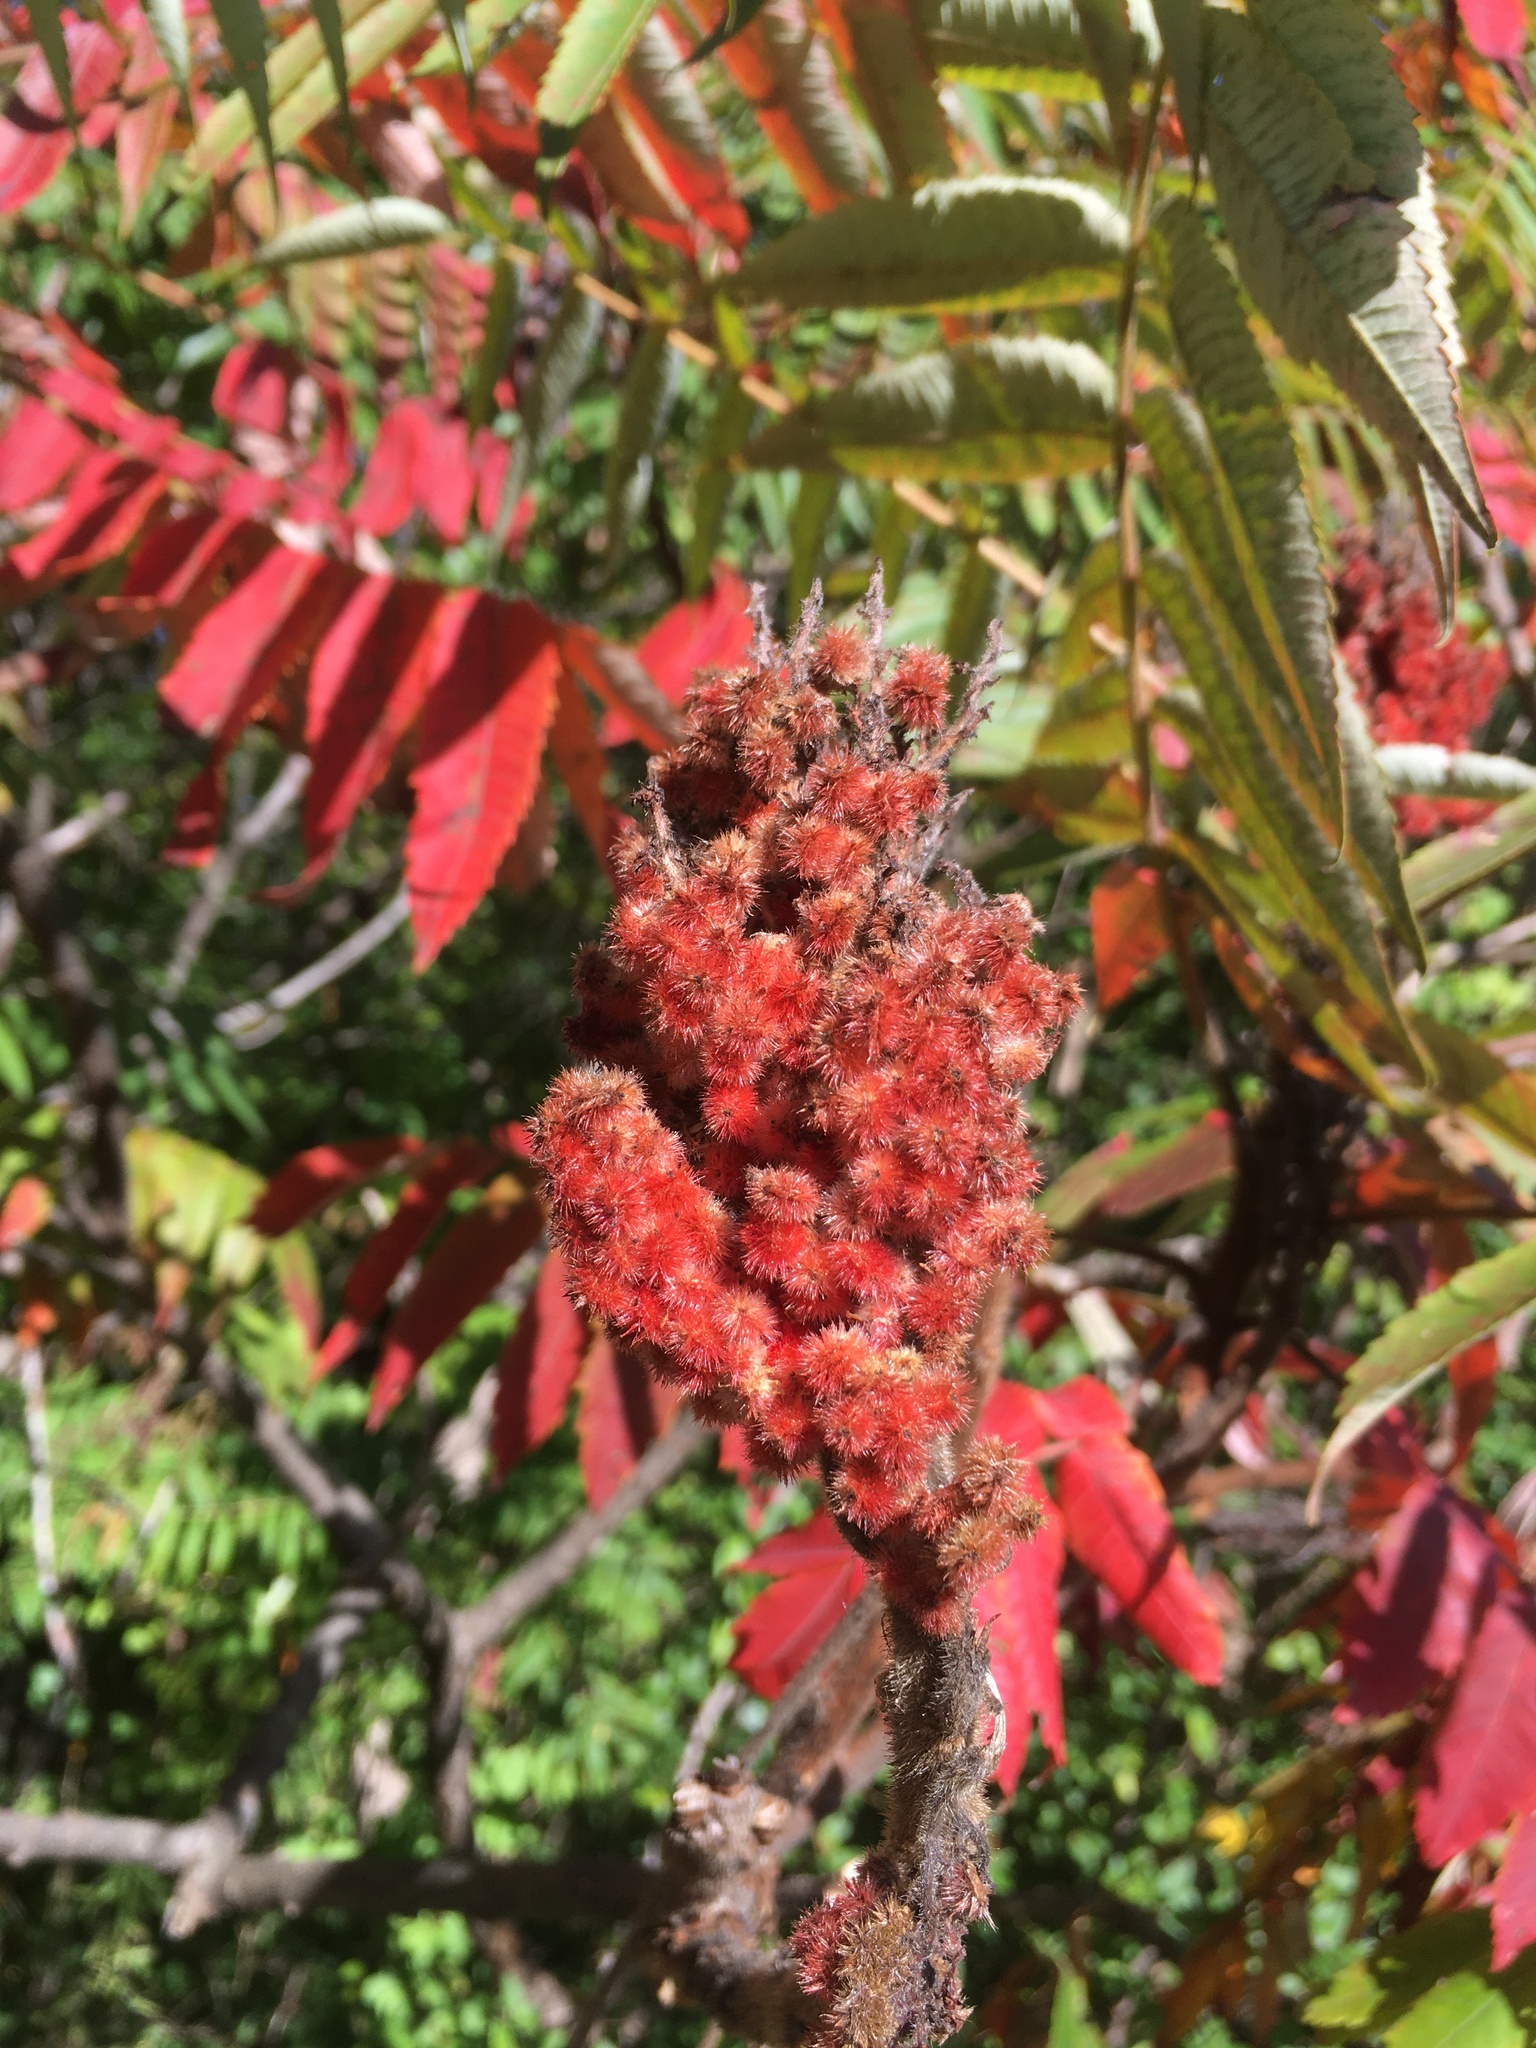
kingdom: Plantae
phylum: Tracheophyta
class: Magnoliopsida
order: Sapindales
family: Anacardiaceae
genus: Rhus
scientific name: Rhus typhina
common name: Staghorn sumac
